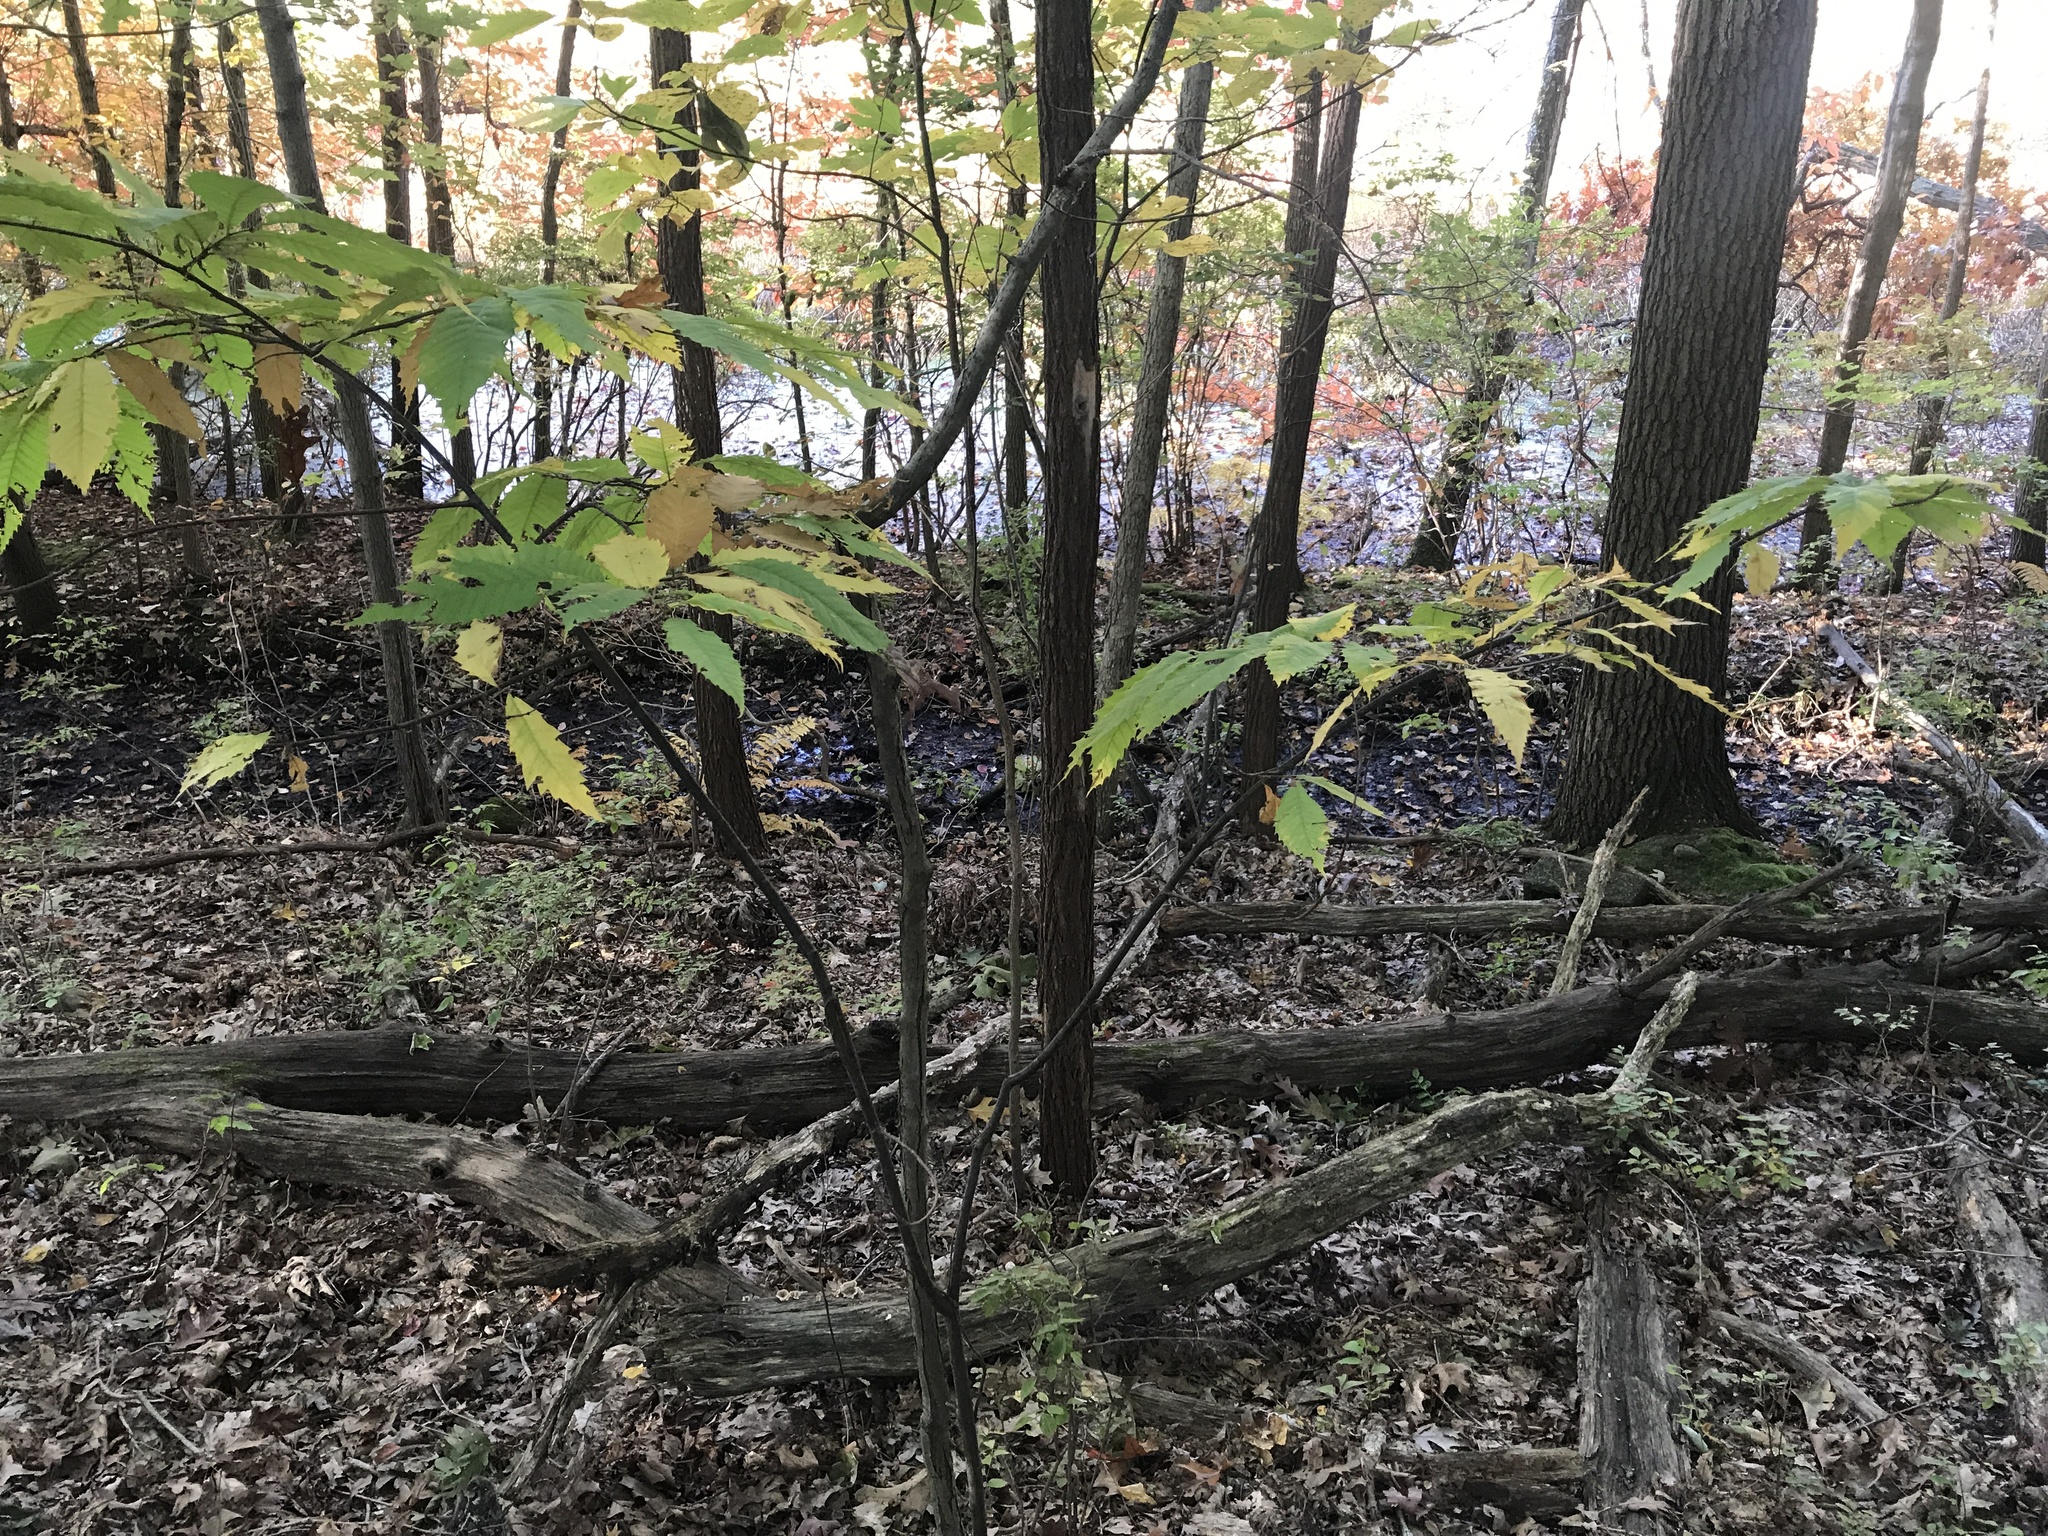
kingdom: Plantae
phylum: Tracheophyta
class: Magnoliopsida
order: Fagales
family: Fagaceae
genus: Castanea
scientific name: Castanea dentata
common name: American chestnut
